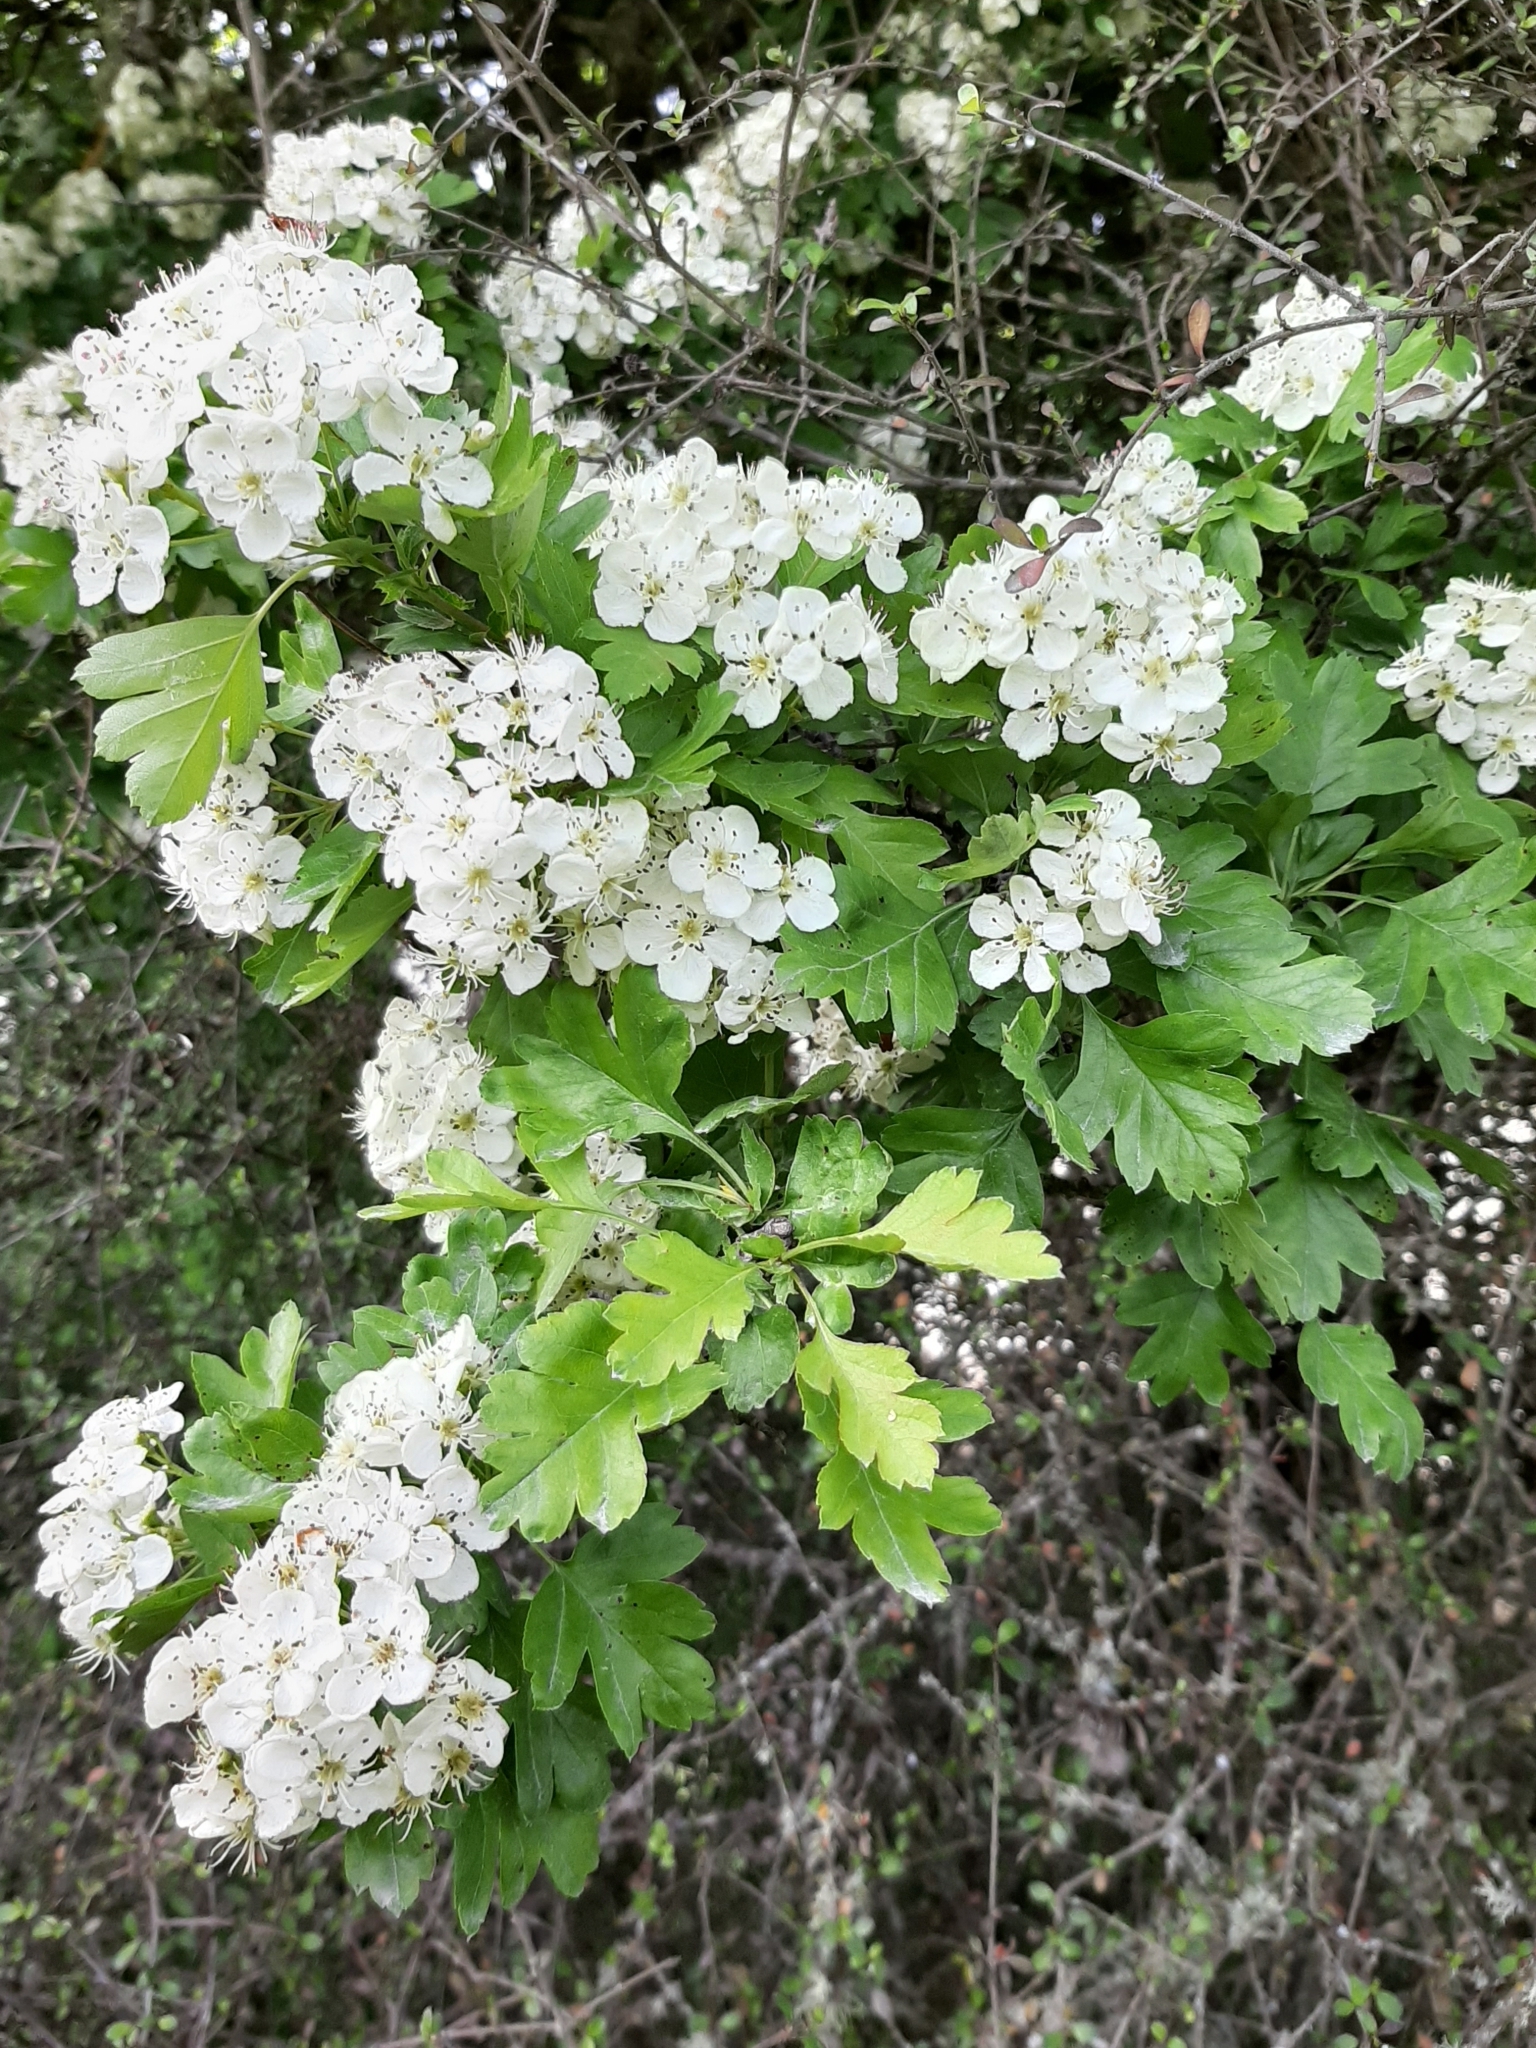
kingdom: Plantae
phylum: Tracheophyta
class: Magnoliopsida
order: Rosales
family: Rosaceae
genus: Crataegus
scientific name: Crataegus monogyna
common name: Hawthorn
